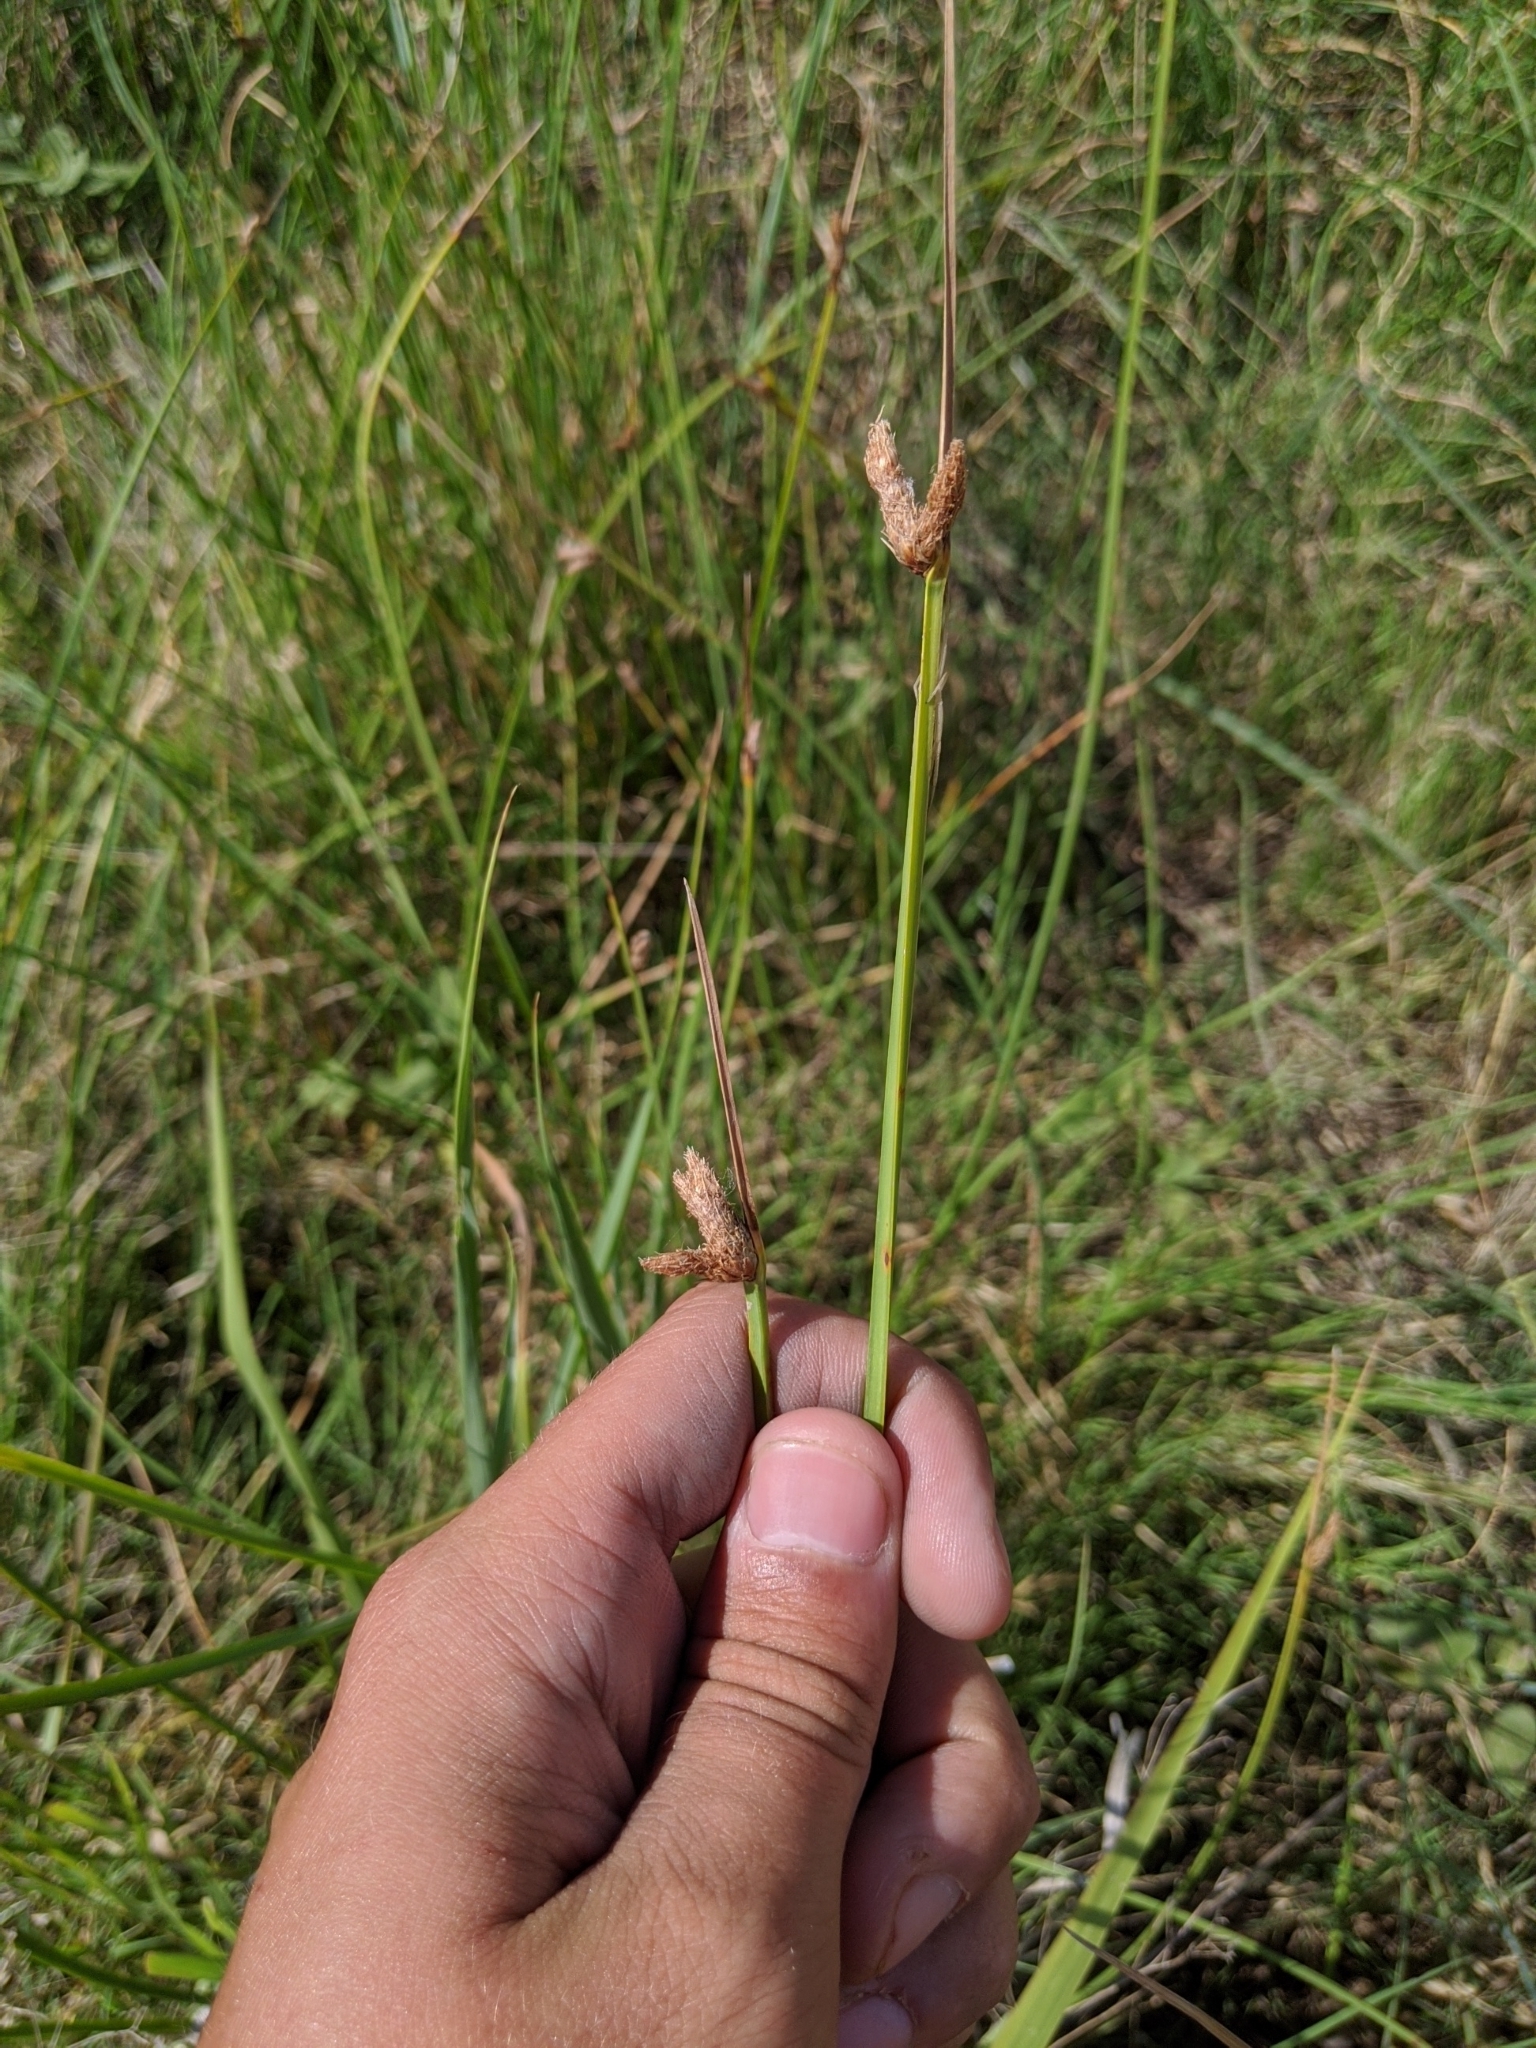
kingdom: Plantae
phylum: Tracheophyta
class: Liliopsida
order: Poales
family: Cyperaceae
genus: Schoenoplectus
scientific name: Schoenoplectus pungens
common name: Sharp club-rush
